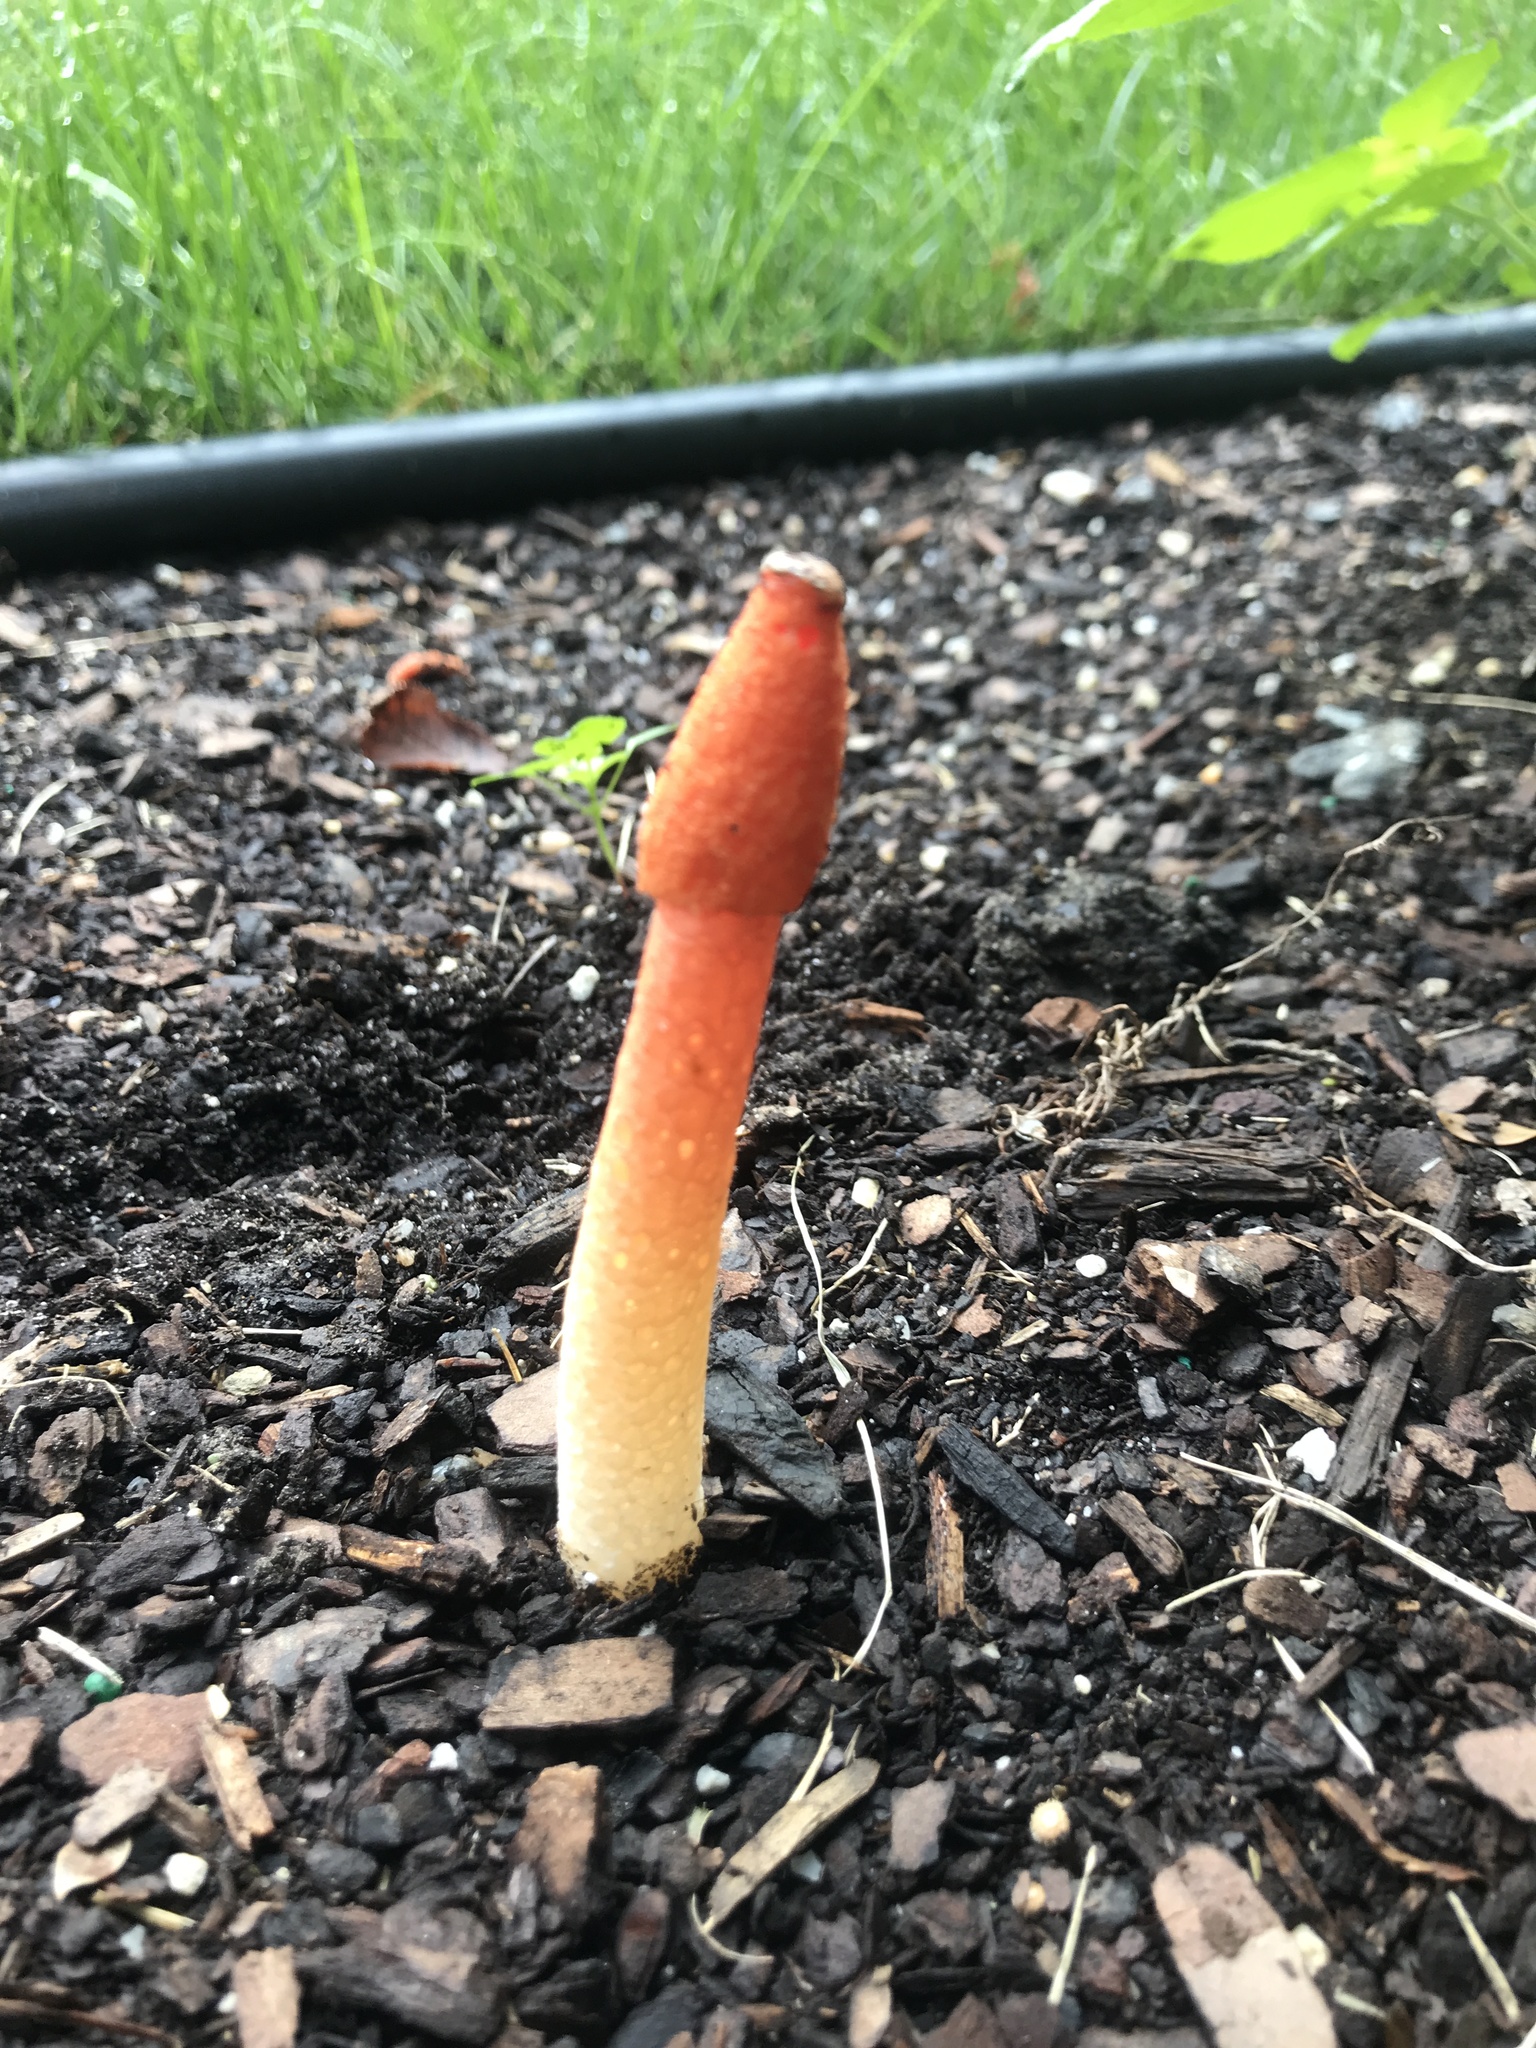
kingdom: Fungi
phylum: Basidiomycota
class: Agaricomycetes
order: Phallales
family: Phallaceae
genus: Phallus
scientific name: Phallus rugulosus
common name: Wrinkly stinkhorn
